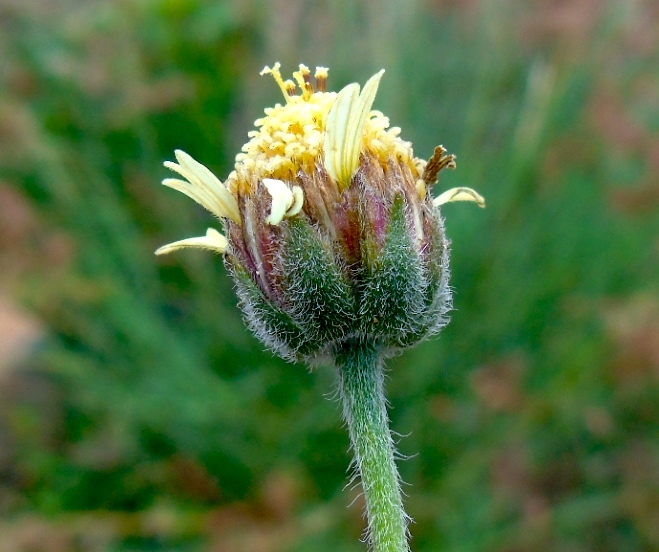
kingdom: Plantae
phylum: Tracheophyta
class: Magnoliopsida
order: Asterales
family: Asteraceae
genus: Tridax
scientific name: Tridax procumbens
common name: Coatbuttons
